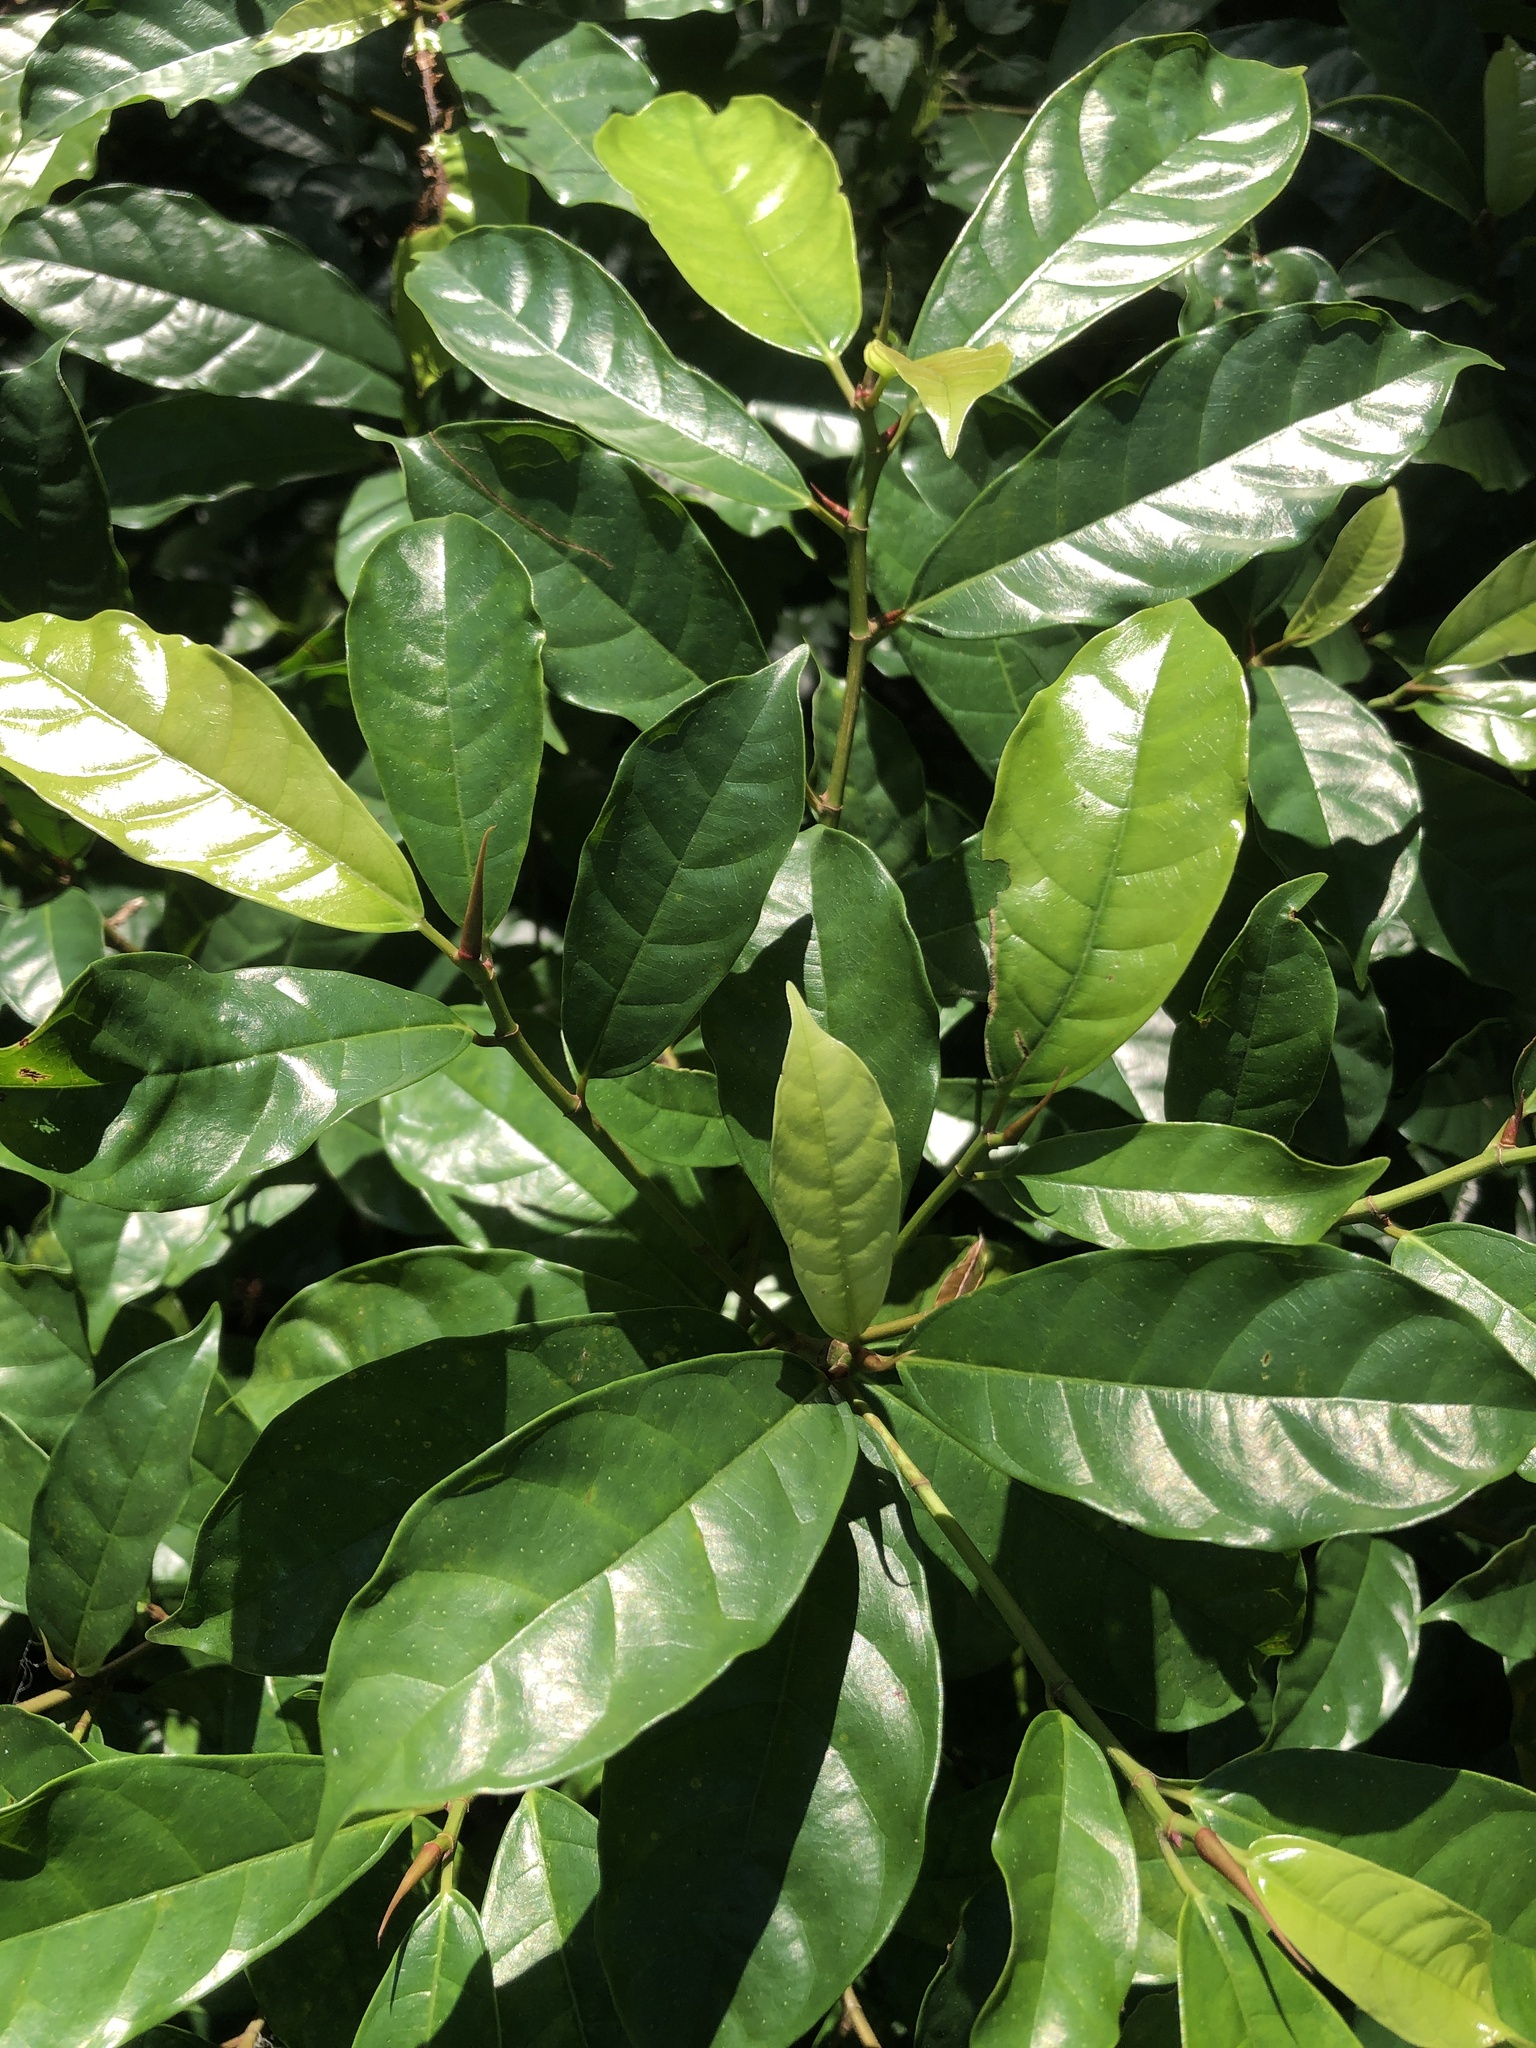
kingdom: Plantae
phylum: Tracheophyta
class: Magnoliopsida
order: Rosales
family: Moraceae
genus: Ficus
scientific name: Ficus nervosa
